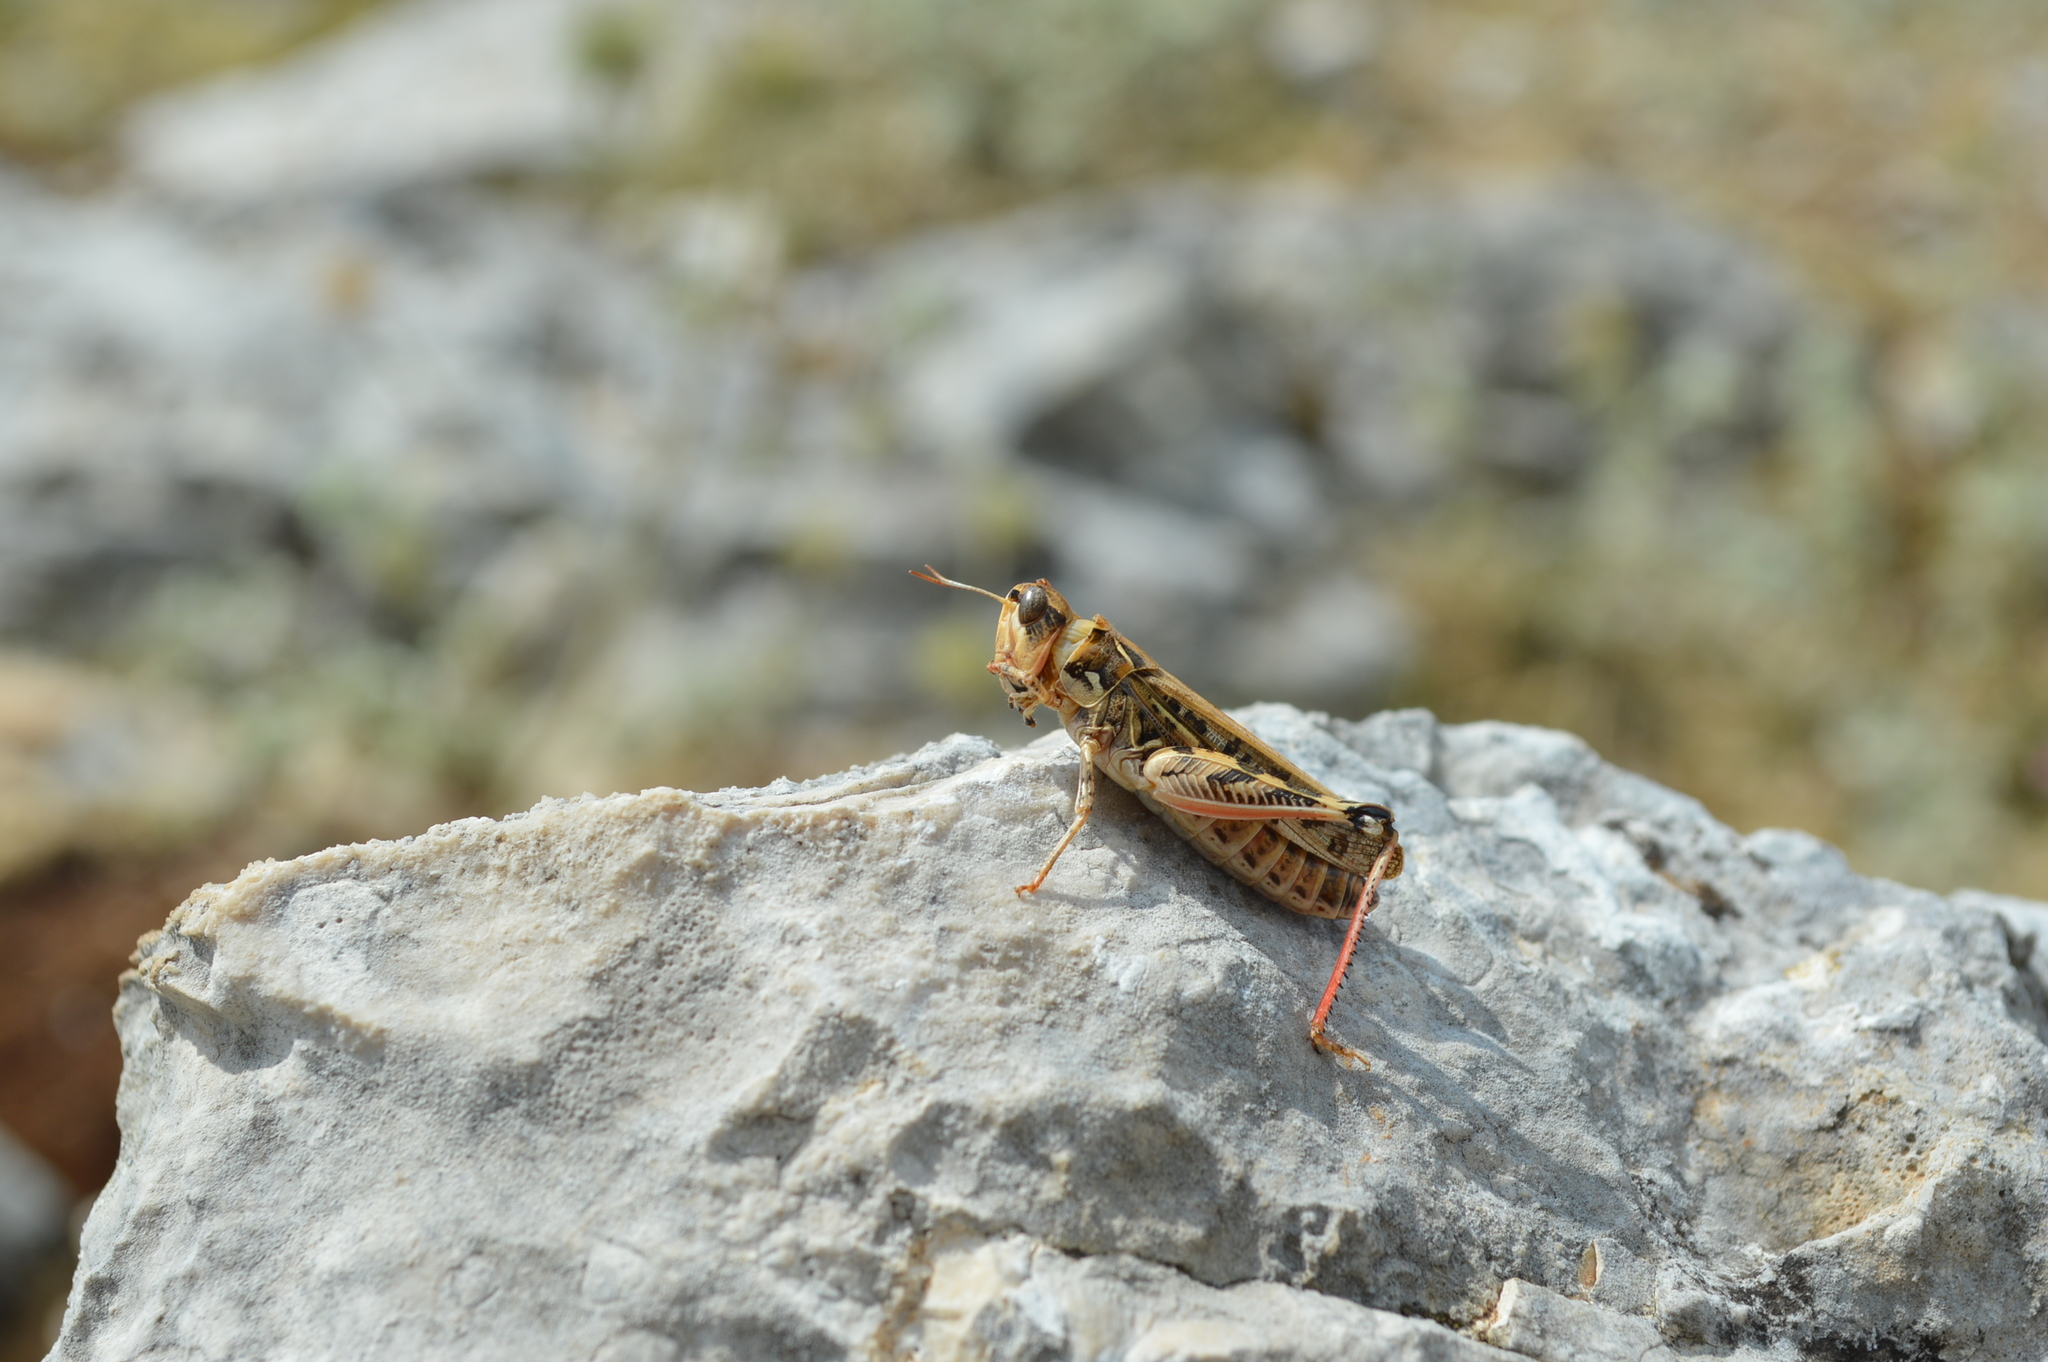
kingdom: Animalia
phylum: Arthropoda
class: Insecta
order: Orthoptera
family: Acrididae
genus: Dociostaurus
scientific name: Dociostaurus maroccanus
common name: Moroccan locust
